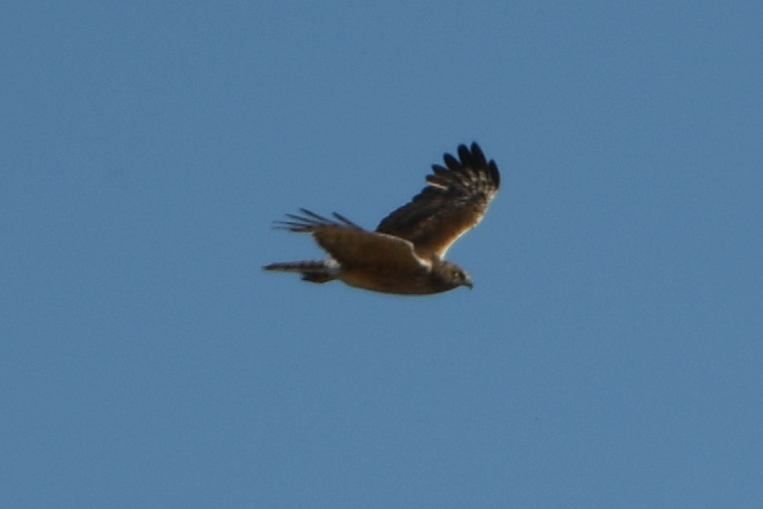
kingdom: Animalia
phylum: Chordata
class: Aves
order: Accipitriformes
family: Accipitridae
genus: Circus
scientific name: Circus approximans
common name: Swamp harrier
